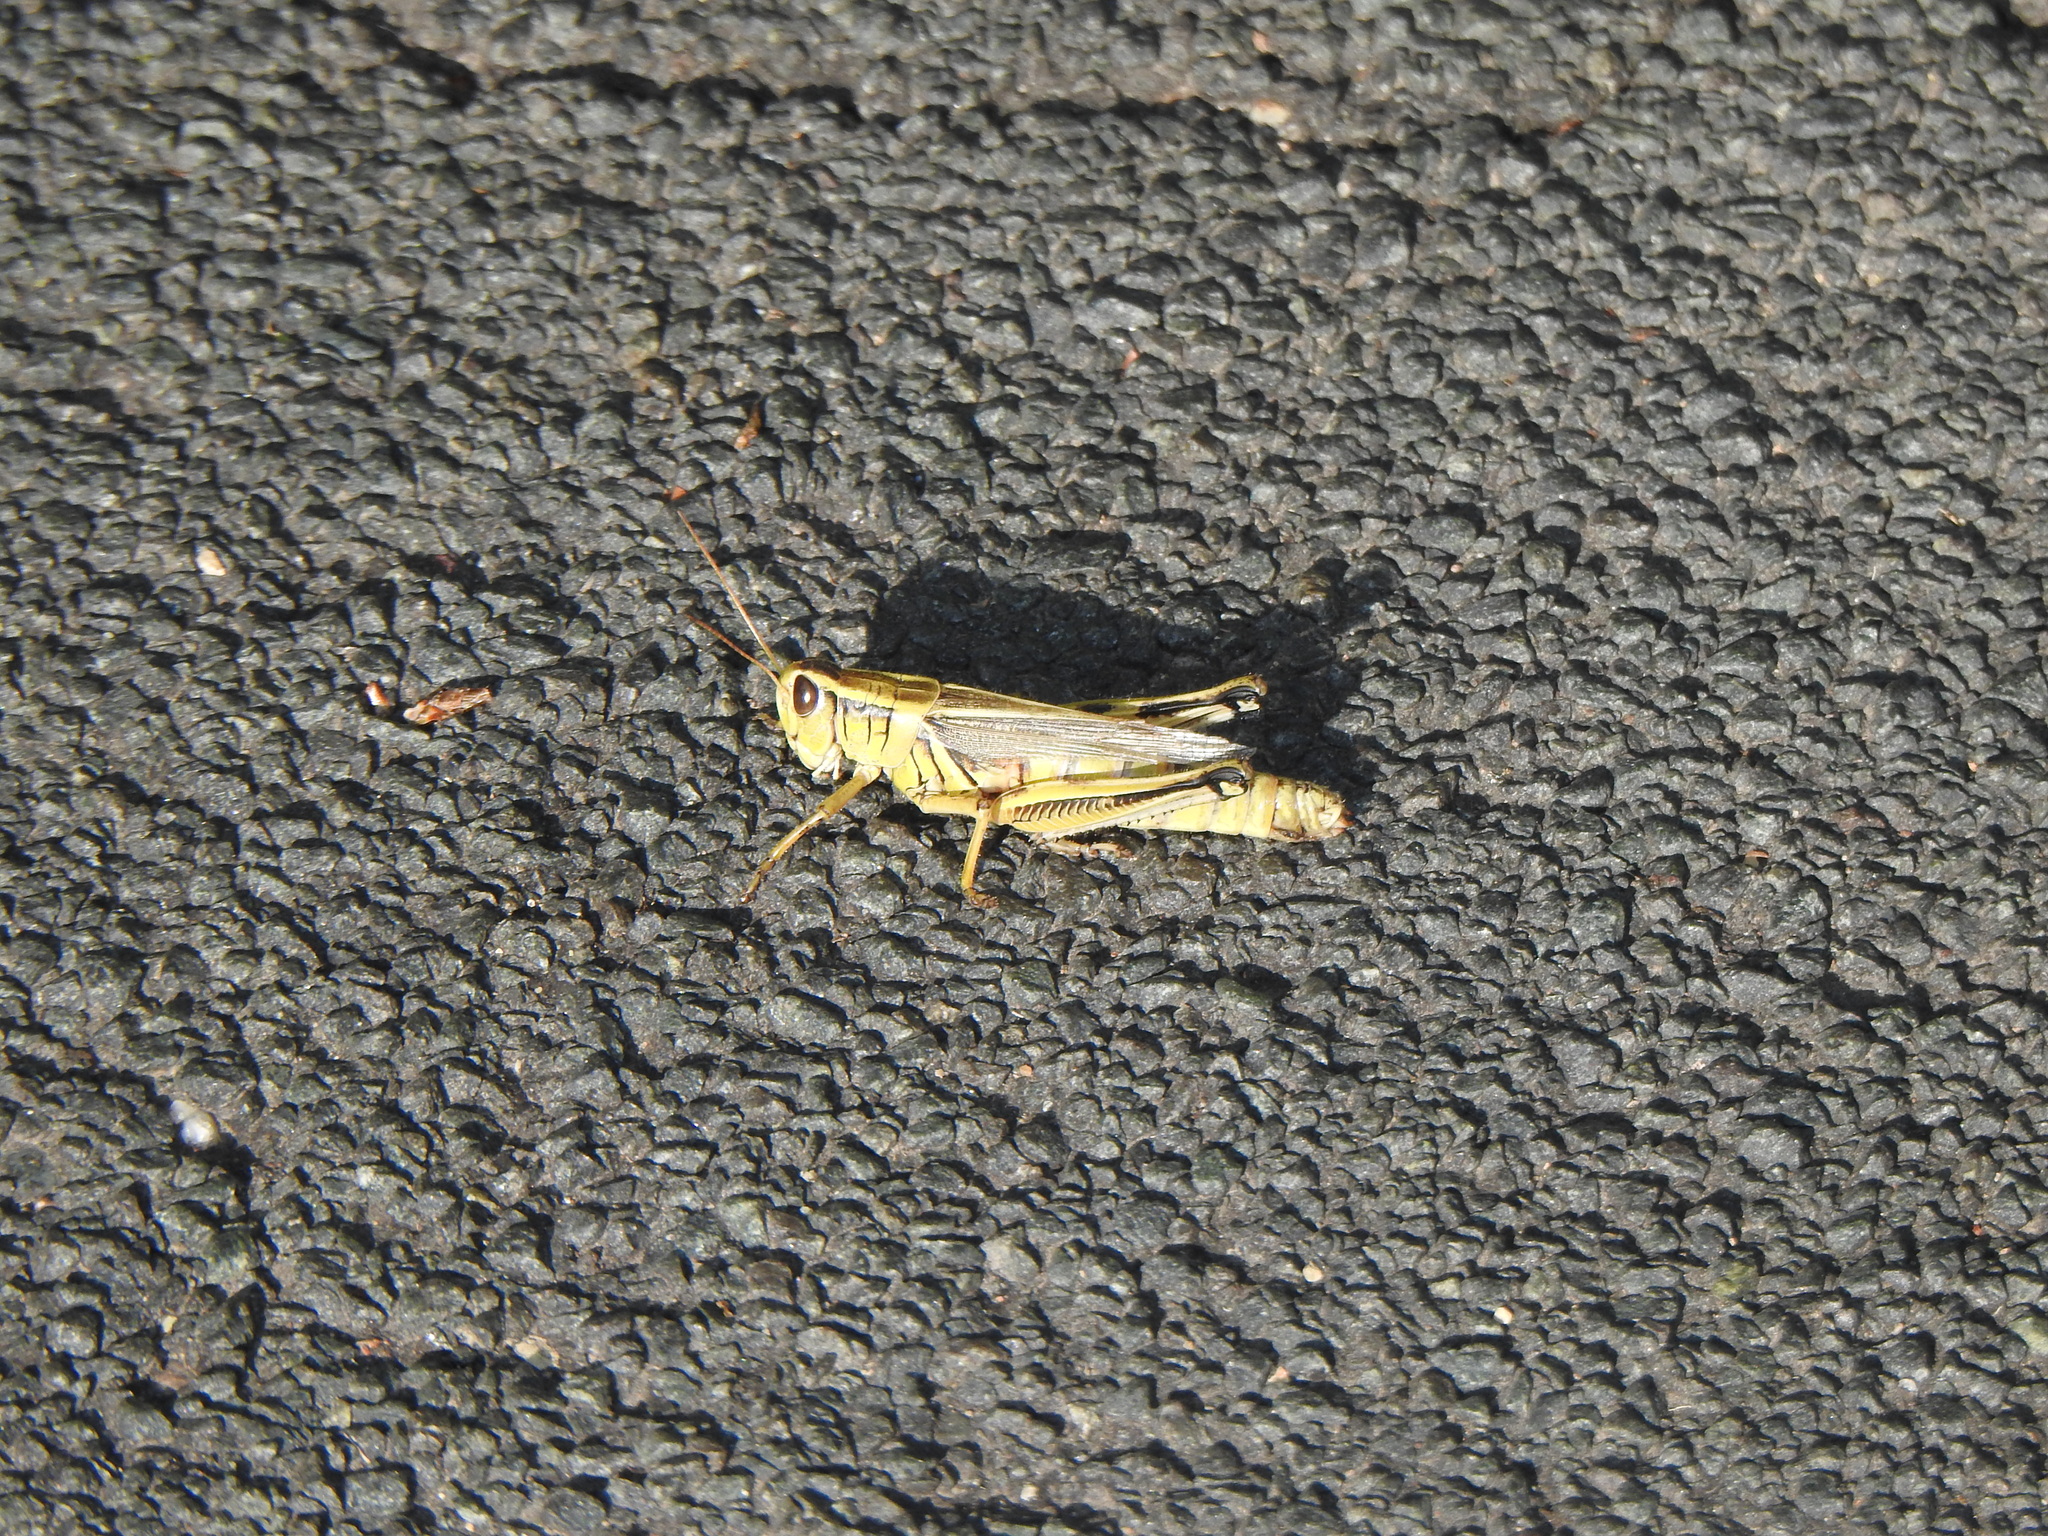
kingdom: Animalia
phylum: Arthropoda
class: Insecta
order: Orthoptera
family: Acrididae
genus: Melanoplus
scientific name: Melanoplus bivittatus
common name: Two-striped grasshopper
